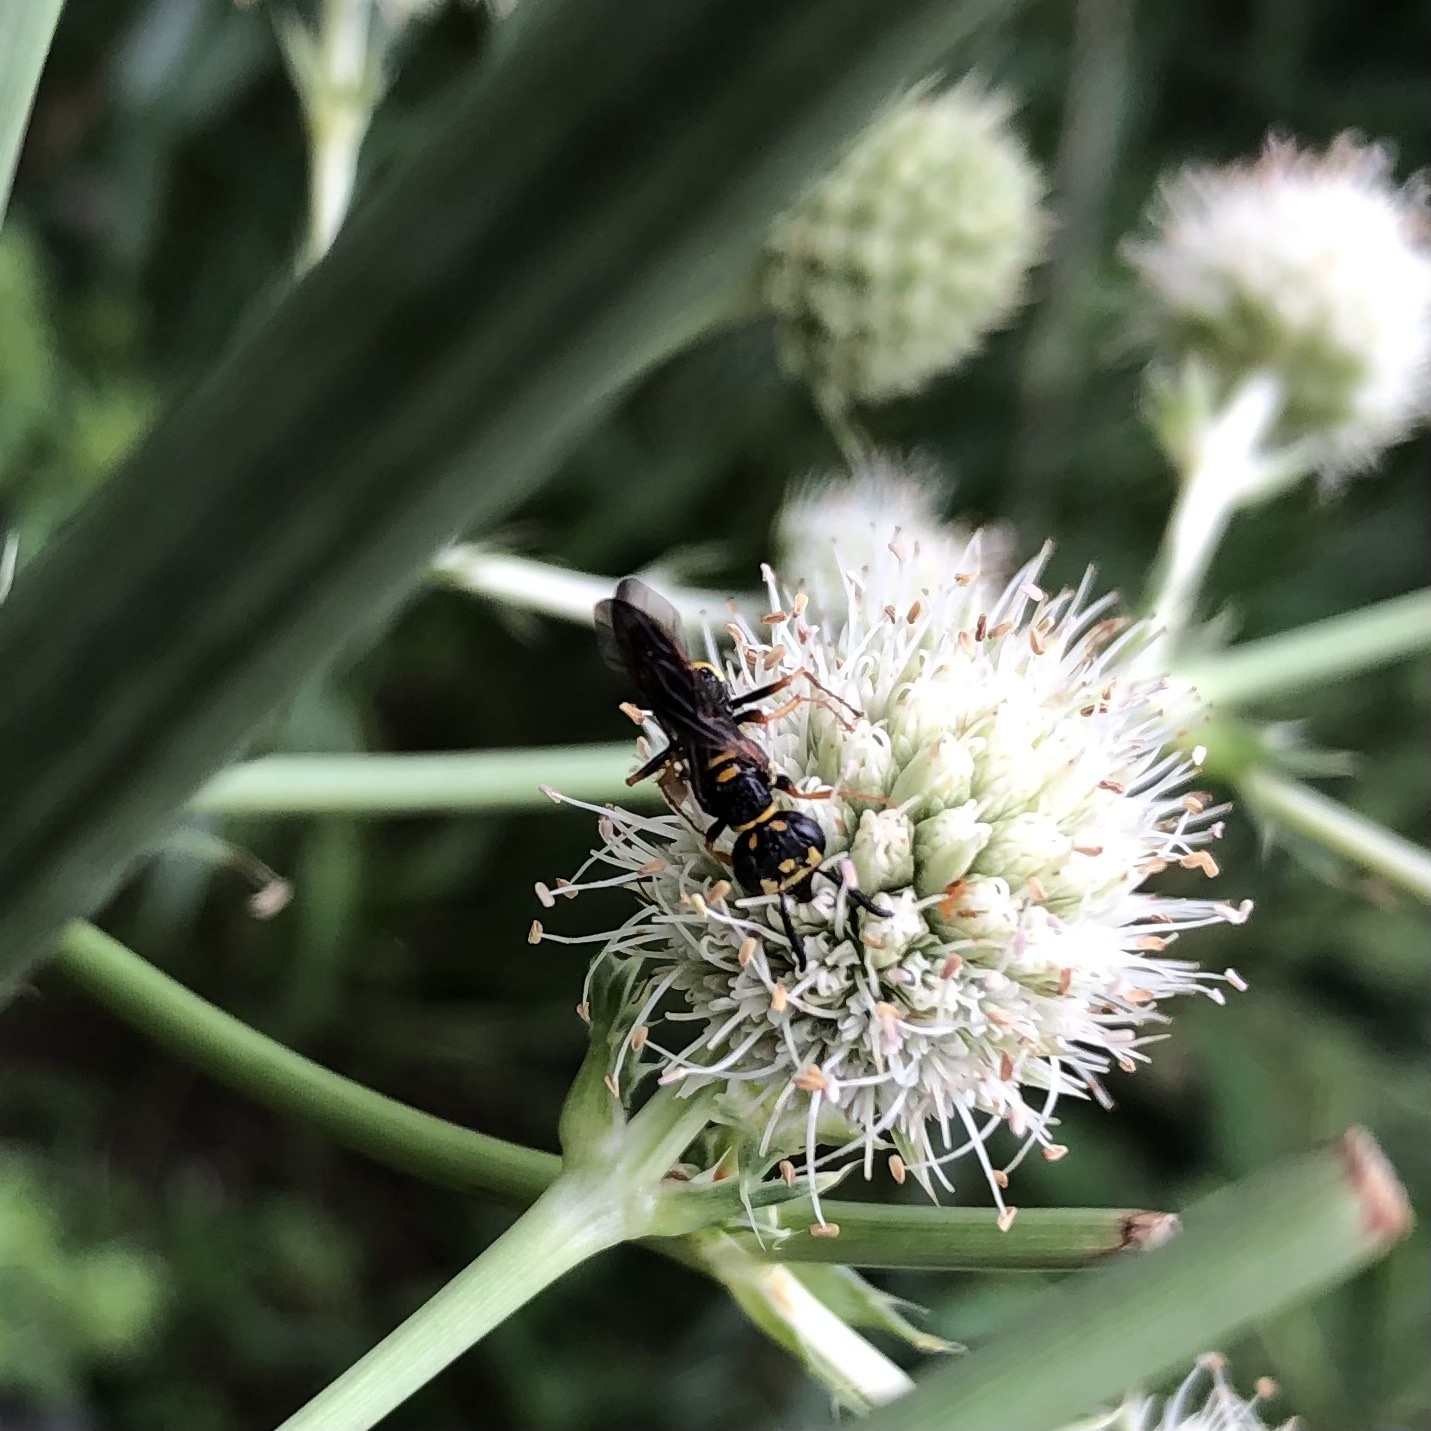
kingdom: Animalia
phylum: Arthropoda
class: Insecta
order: Hymenoptera
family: Crabronidae
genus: Philanthus
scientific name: Philanthus gibbosus
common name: Humped beewolf
